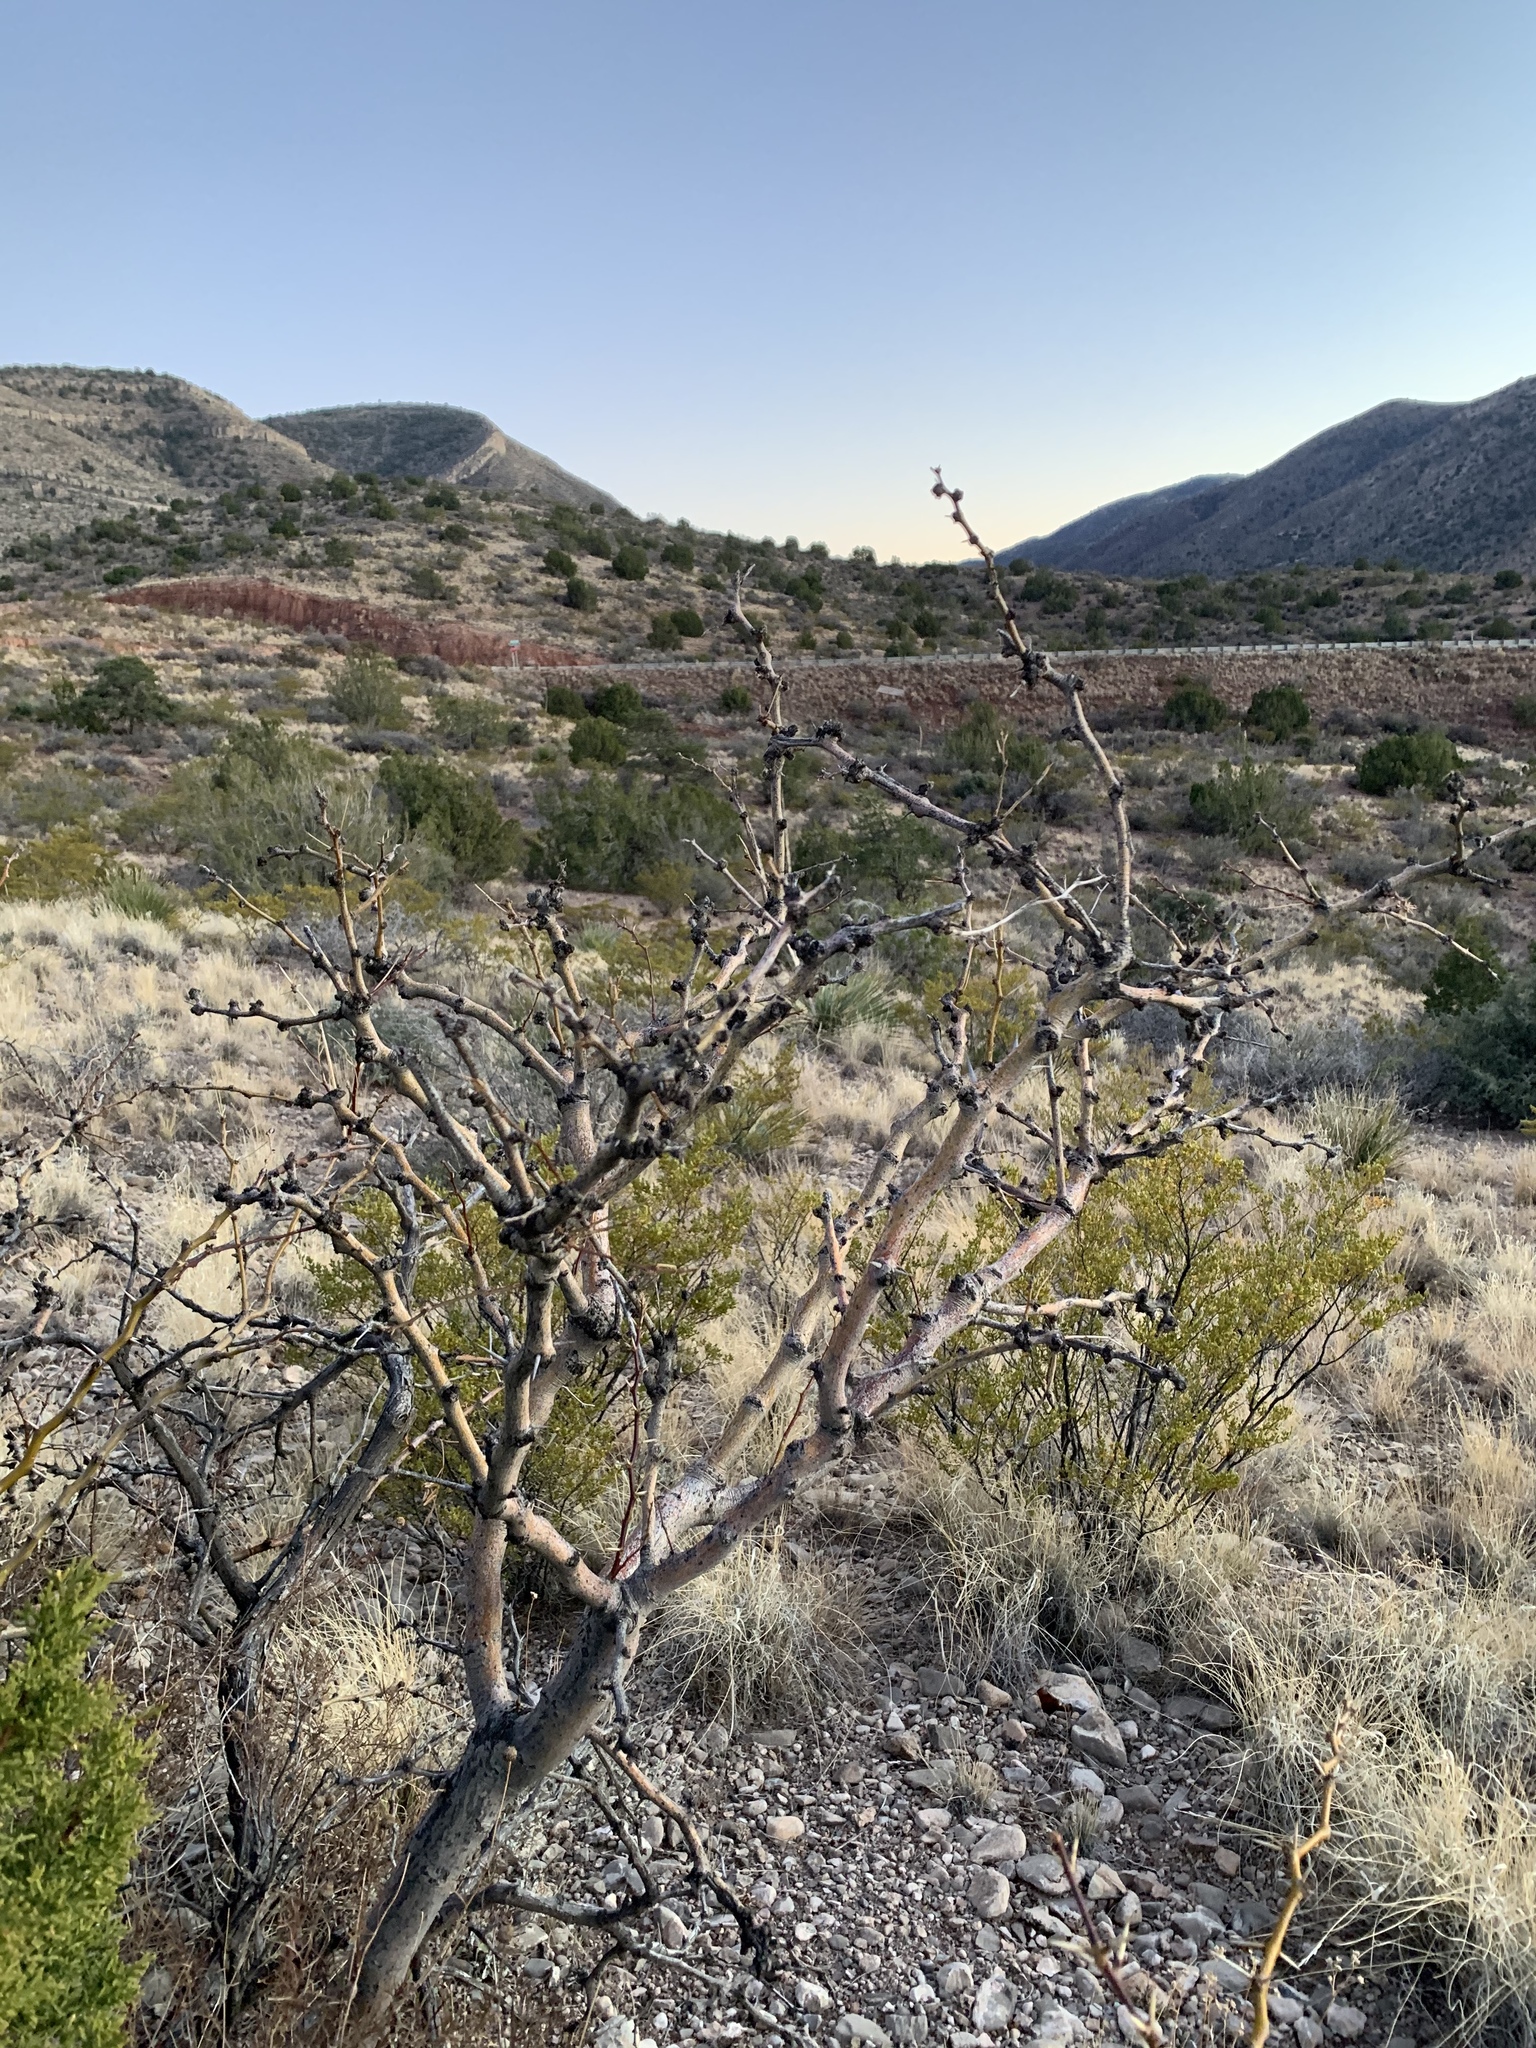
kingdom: Plantae
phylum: Tracheophyta
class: Magnoliopsida
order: Fabales
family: Fabaceae
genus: Prosopis
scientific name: Prosopis glandulosa
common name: Honey mesquite
